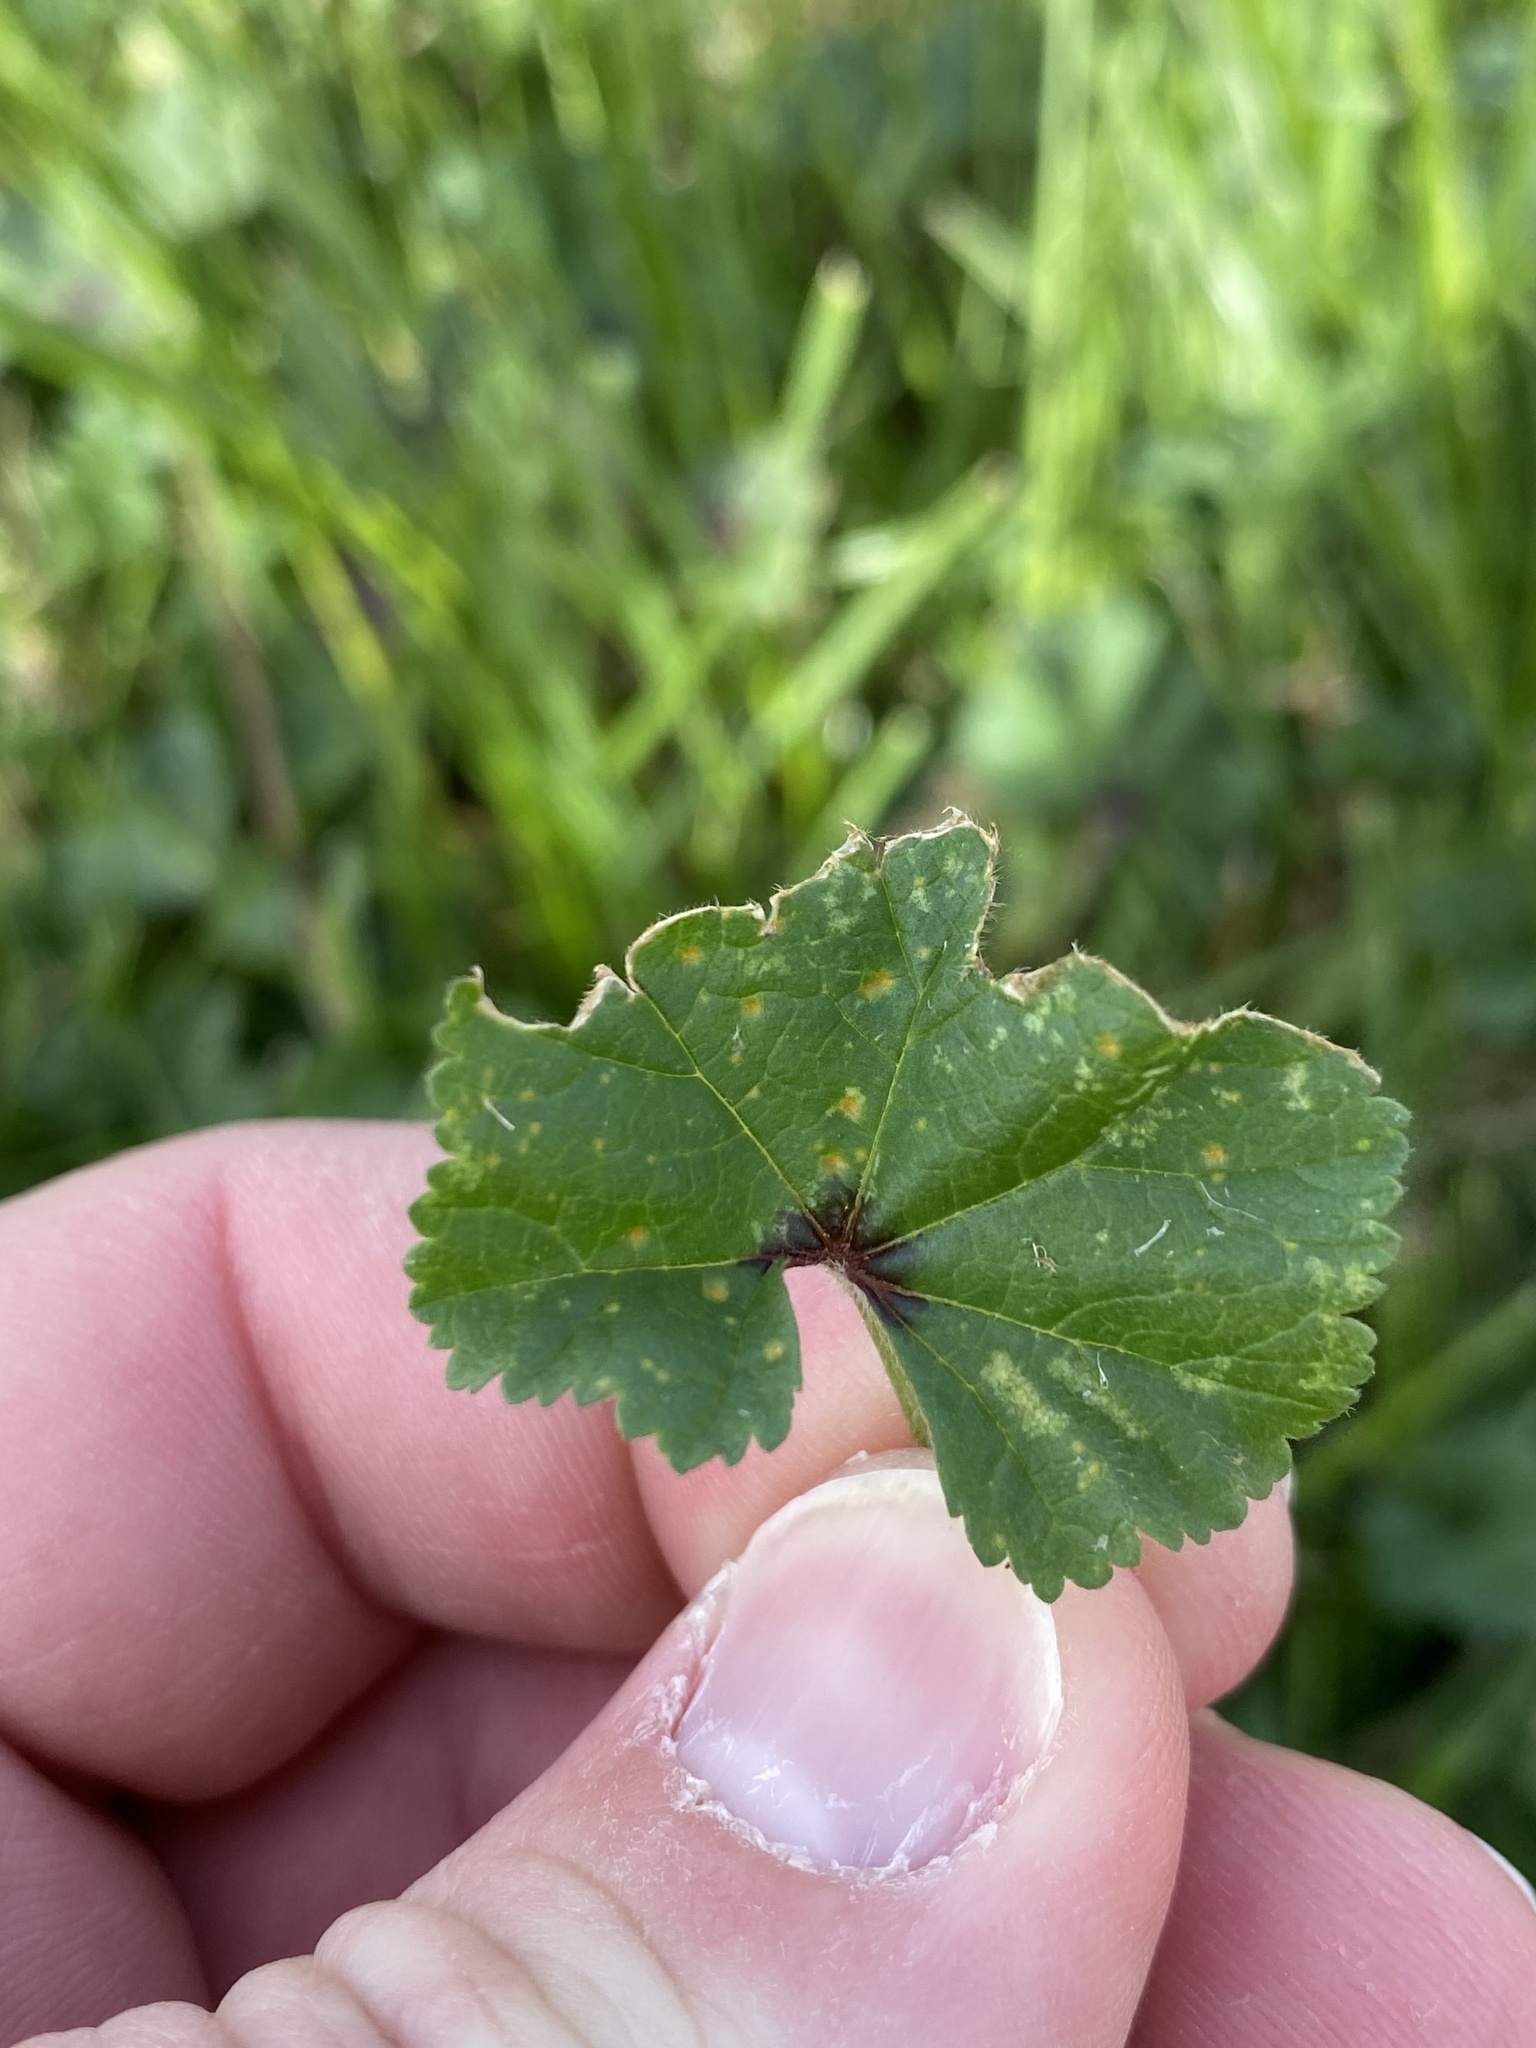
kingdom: Fungi
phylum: Basidiomycota
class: Pucciniomycetes
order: Pucciniales
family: Pucciniaceae
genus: Puccinia
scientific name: Puccinia malvacearum
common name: Hollyhock rust
